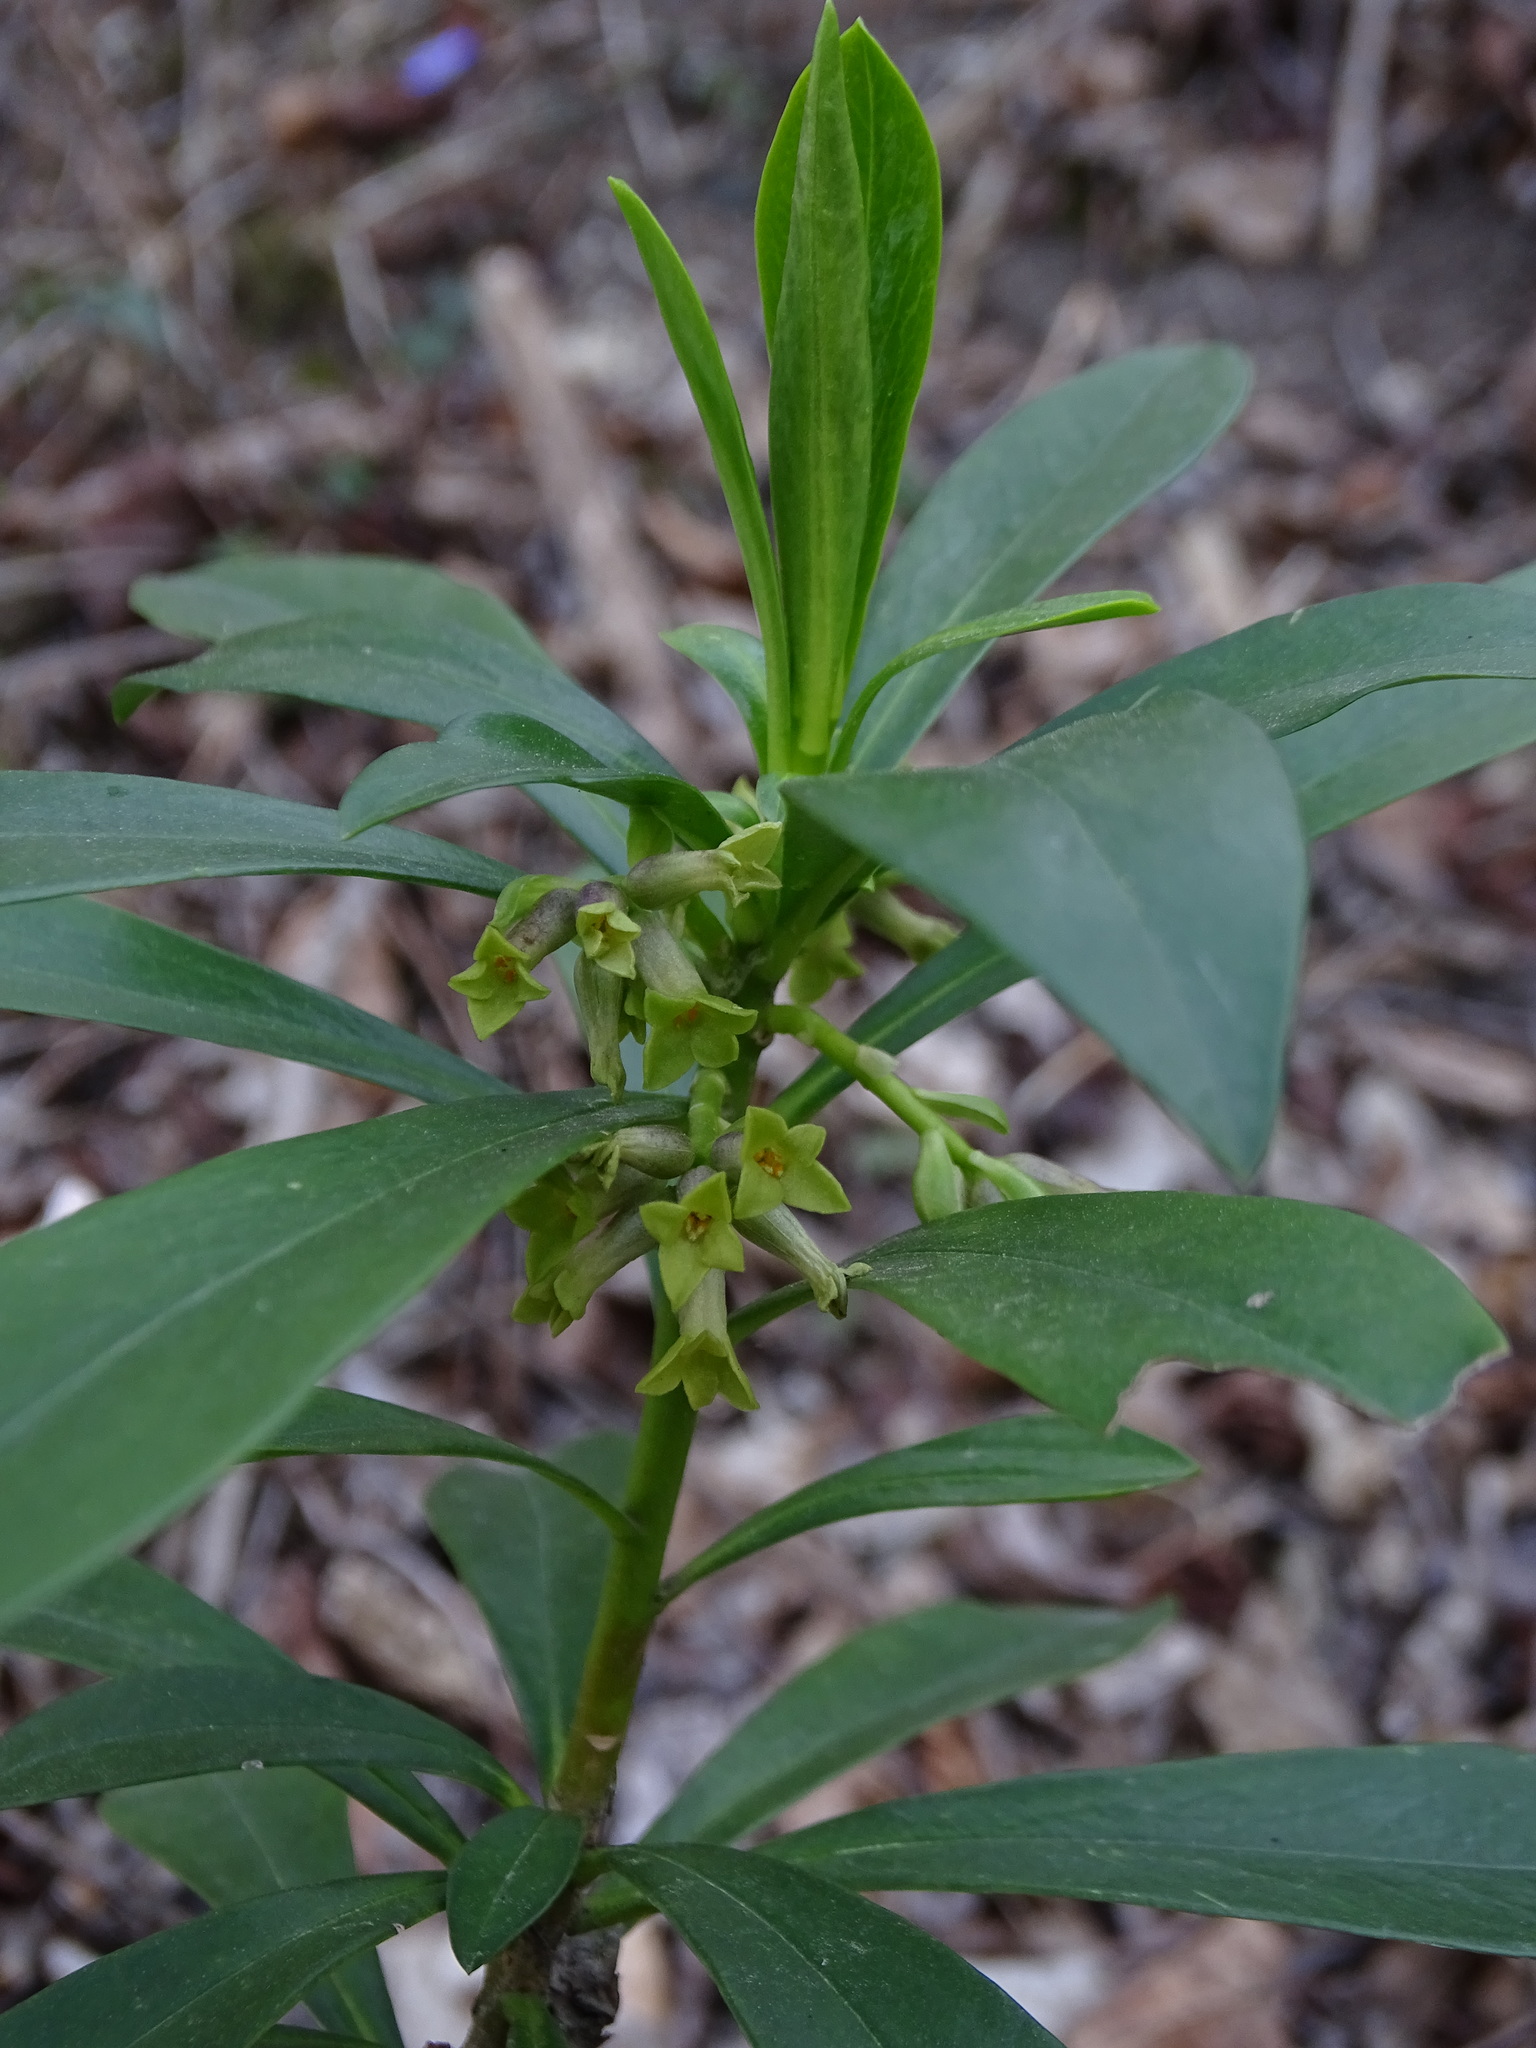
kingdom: Plantae
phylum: Tracheophyta
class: Magnoliopsida
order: Malvales
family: Thymelaeaceae
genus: Daphne
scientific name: Daphne laureola
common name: Spurge-laurel
